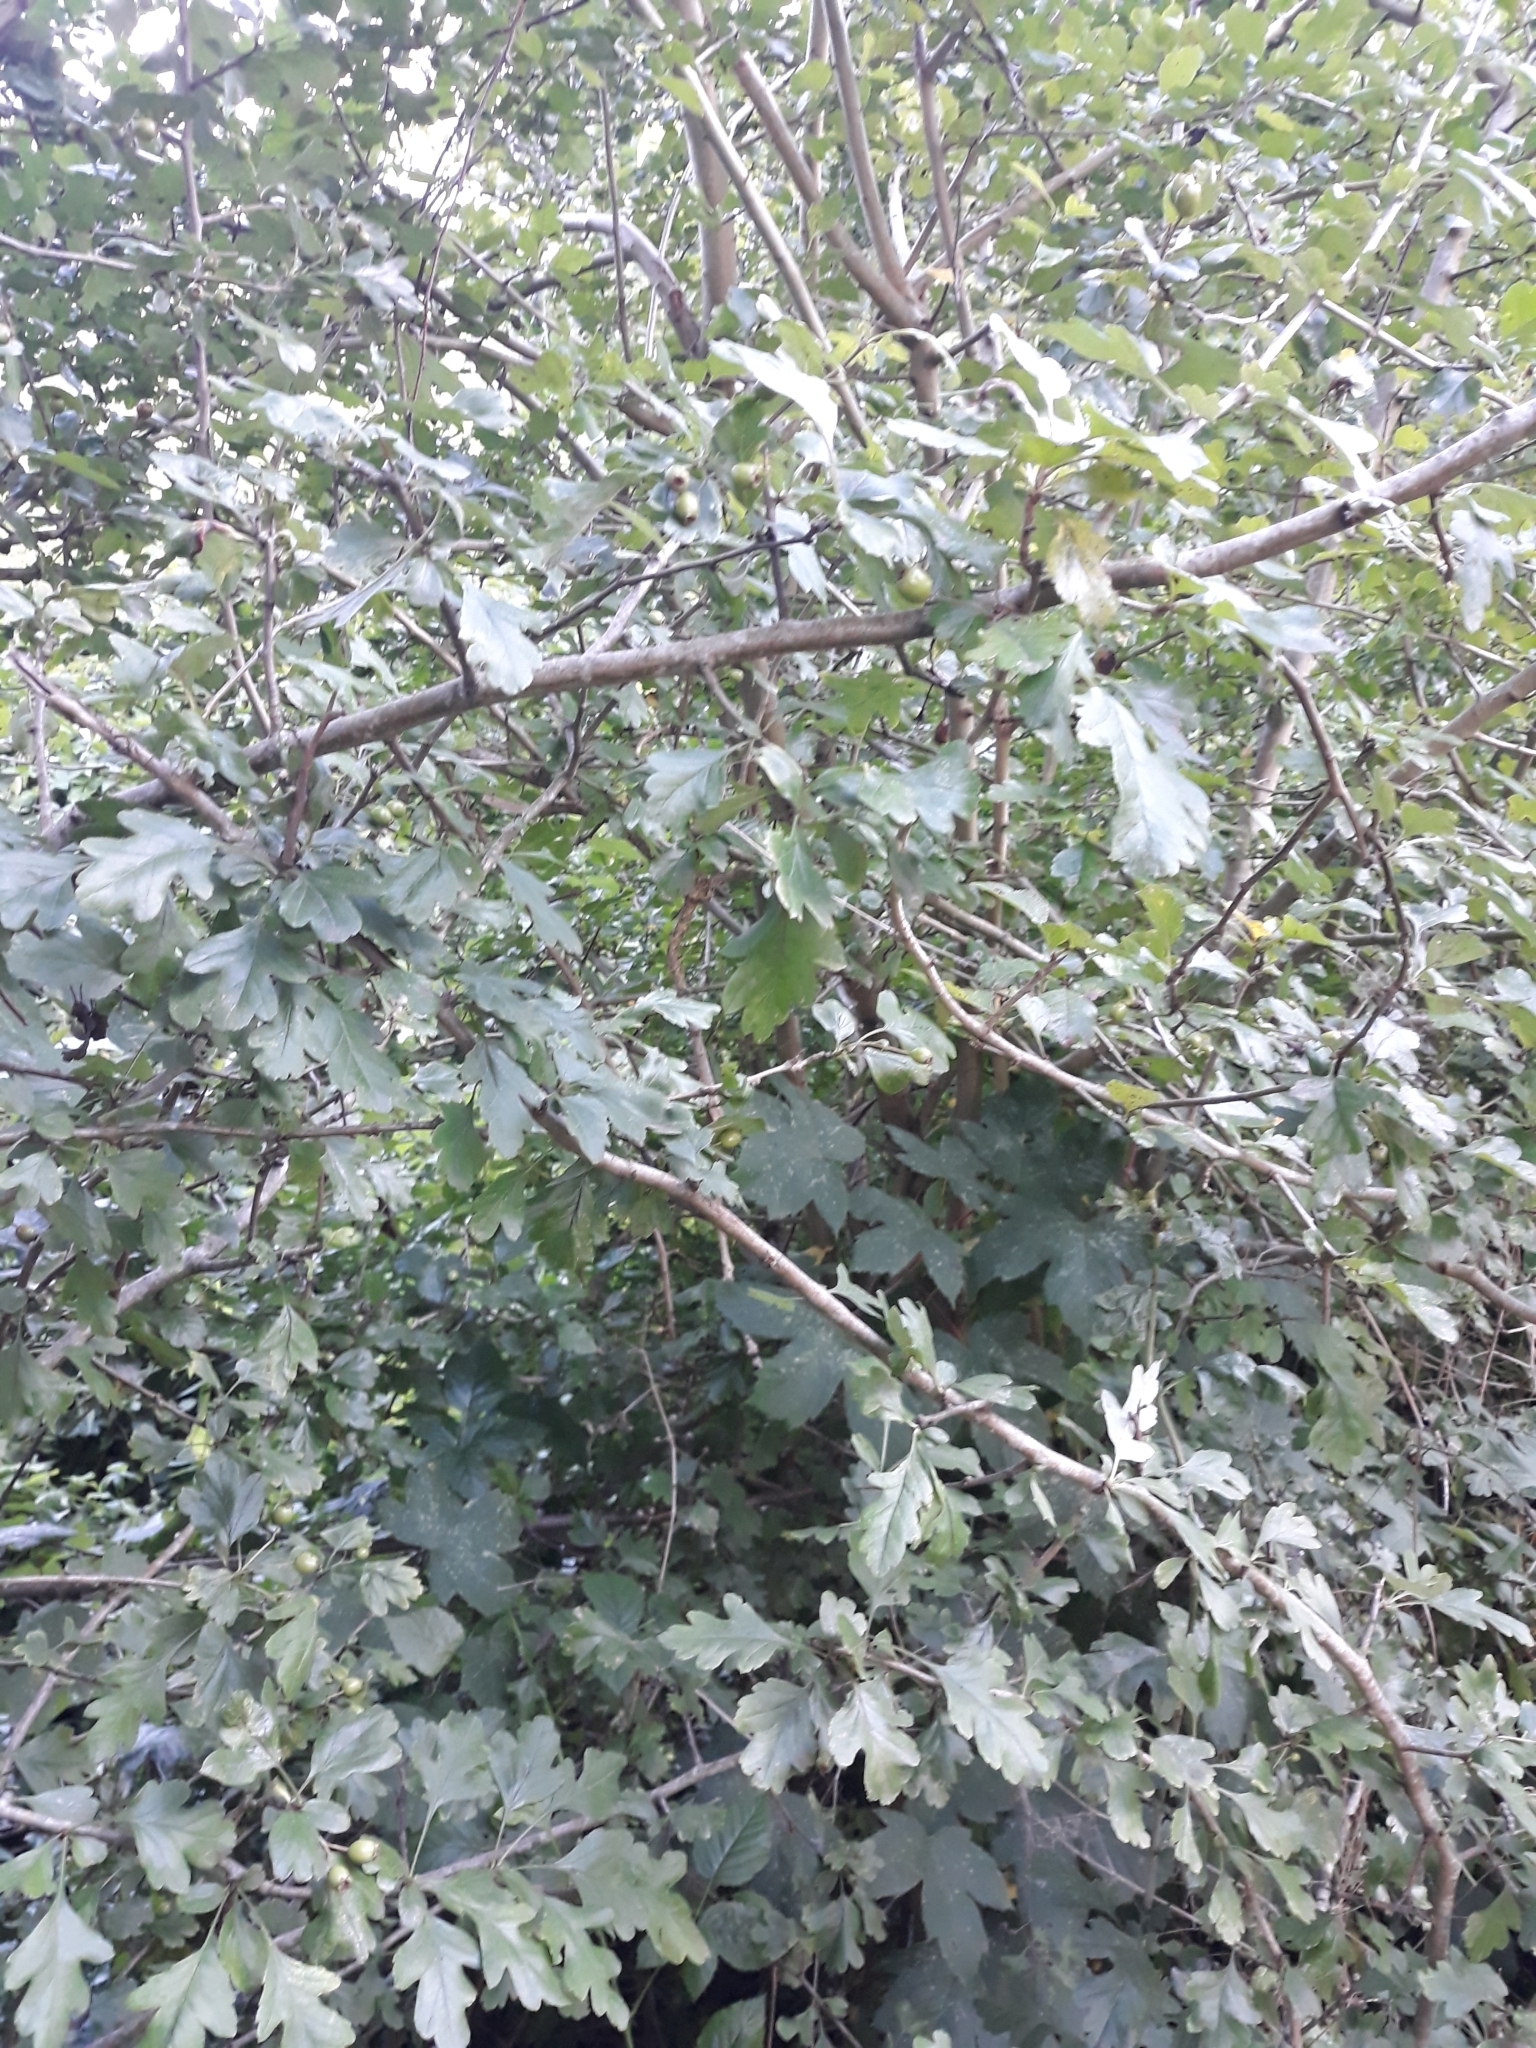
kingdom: Plantae
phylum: Tracheophyta
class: Magnoliopsida
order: Rosales
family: Rosaceae
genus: Crataegus
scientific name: Crataegus monogyna
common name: Hawthorn
